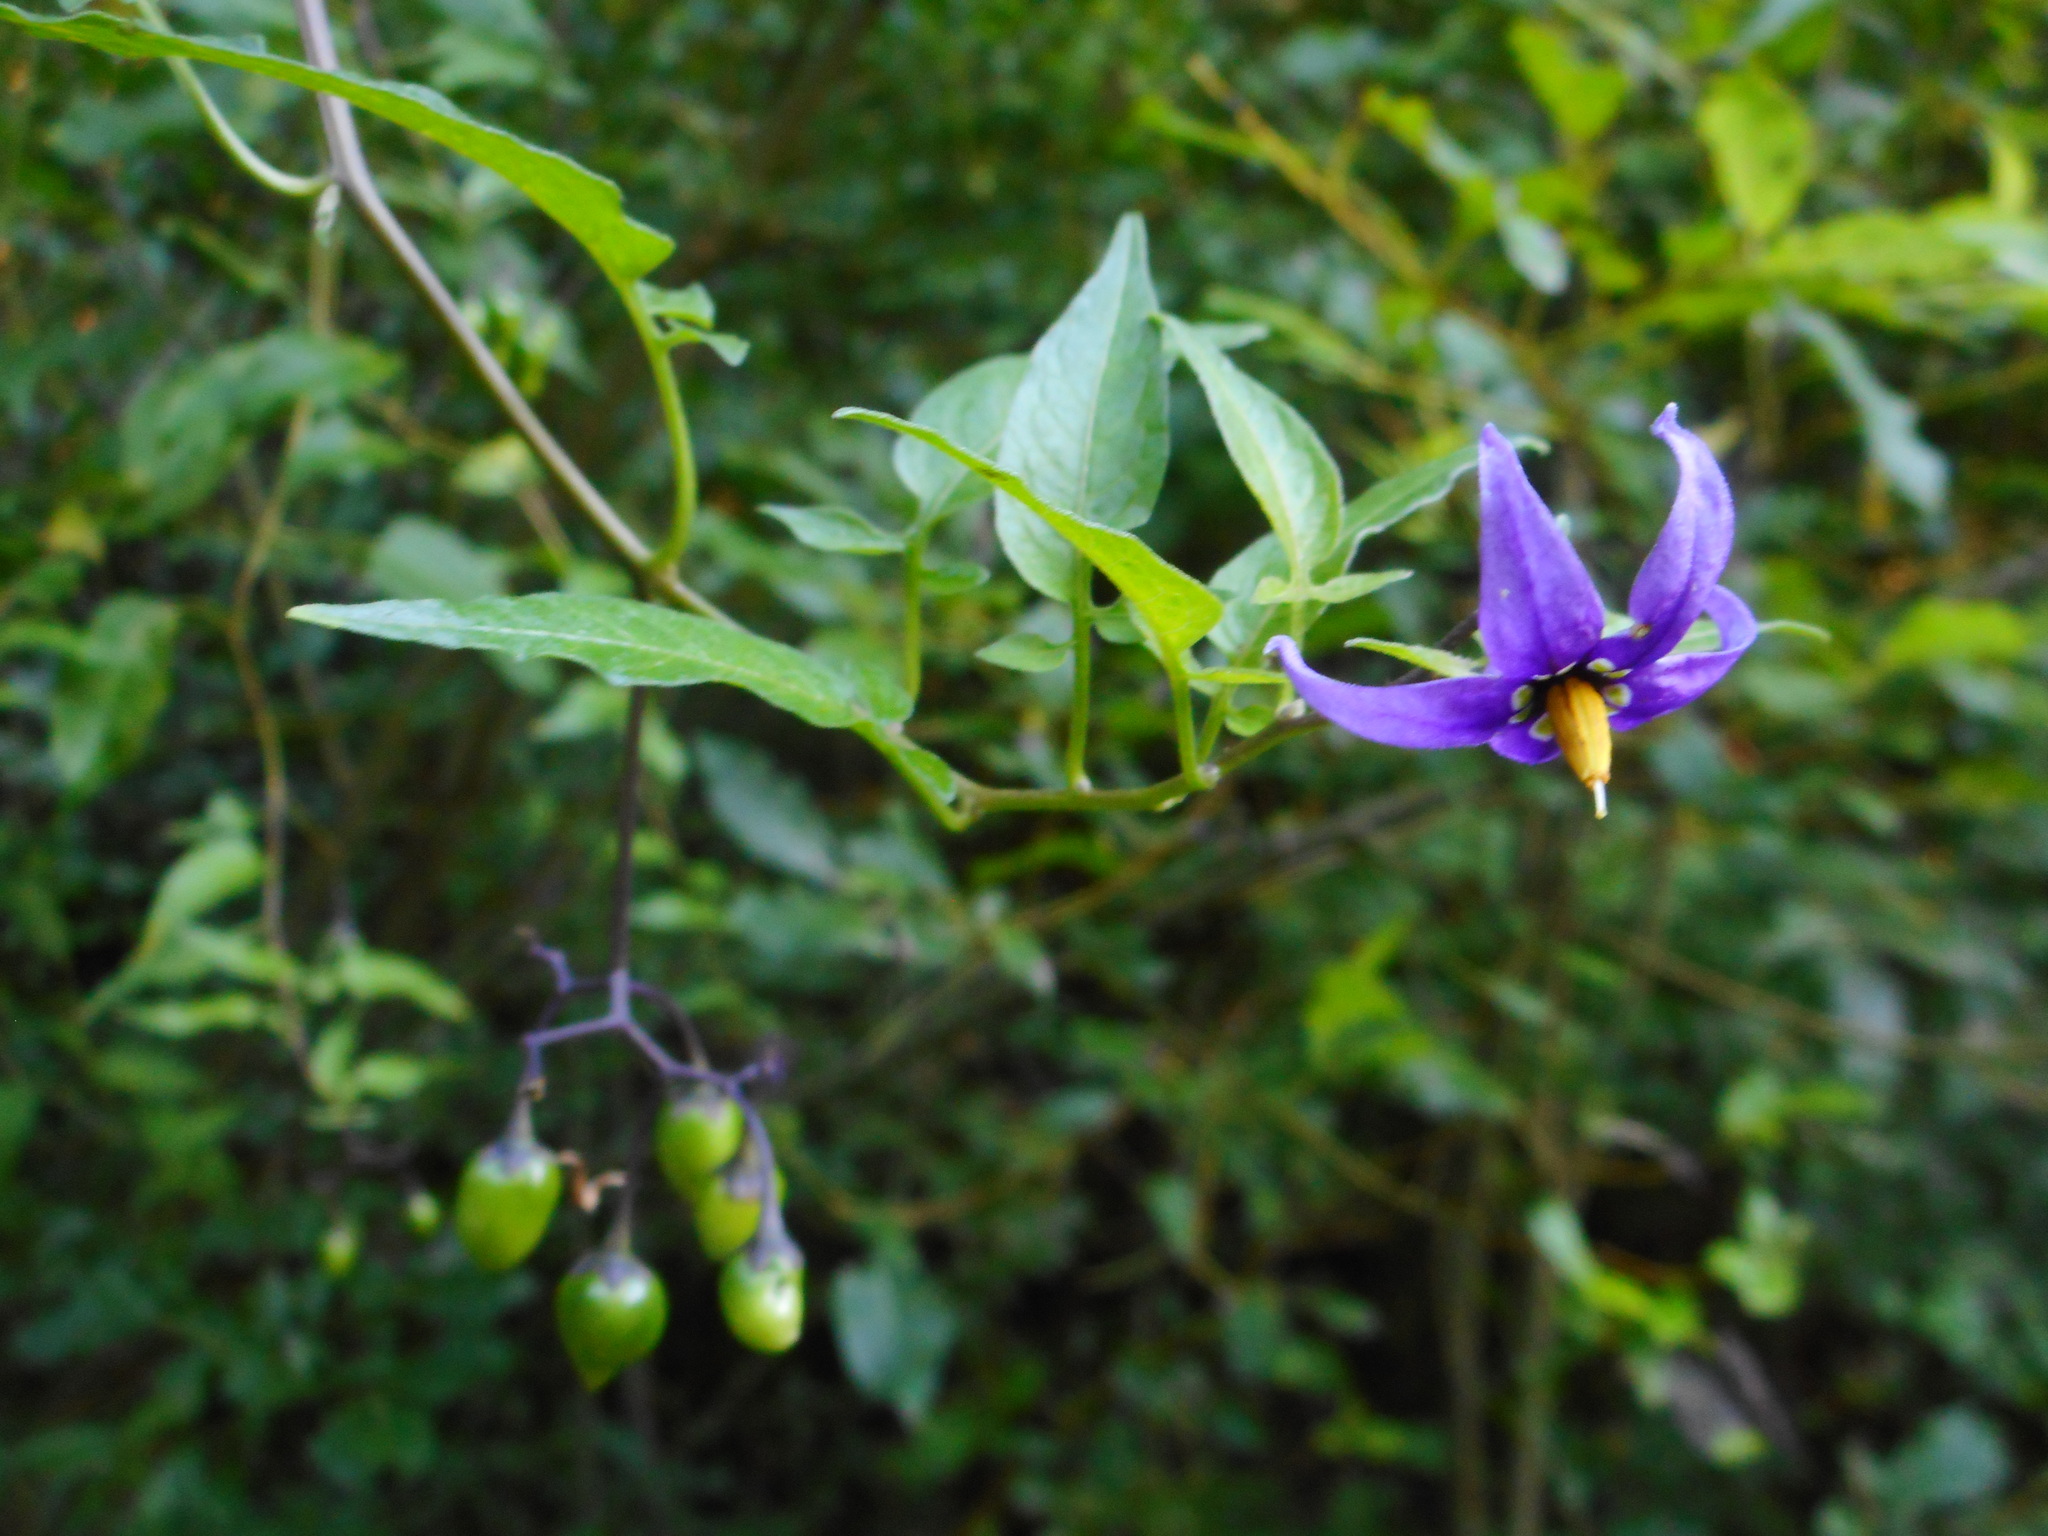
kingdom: Plantae
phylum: Tracheophyta
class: Magnoliopsida
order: Solanales
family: Solanaceae
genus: Solanum
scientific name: Solanum dulcamara
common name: Climbing nightshade
